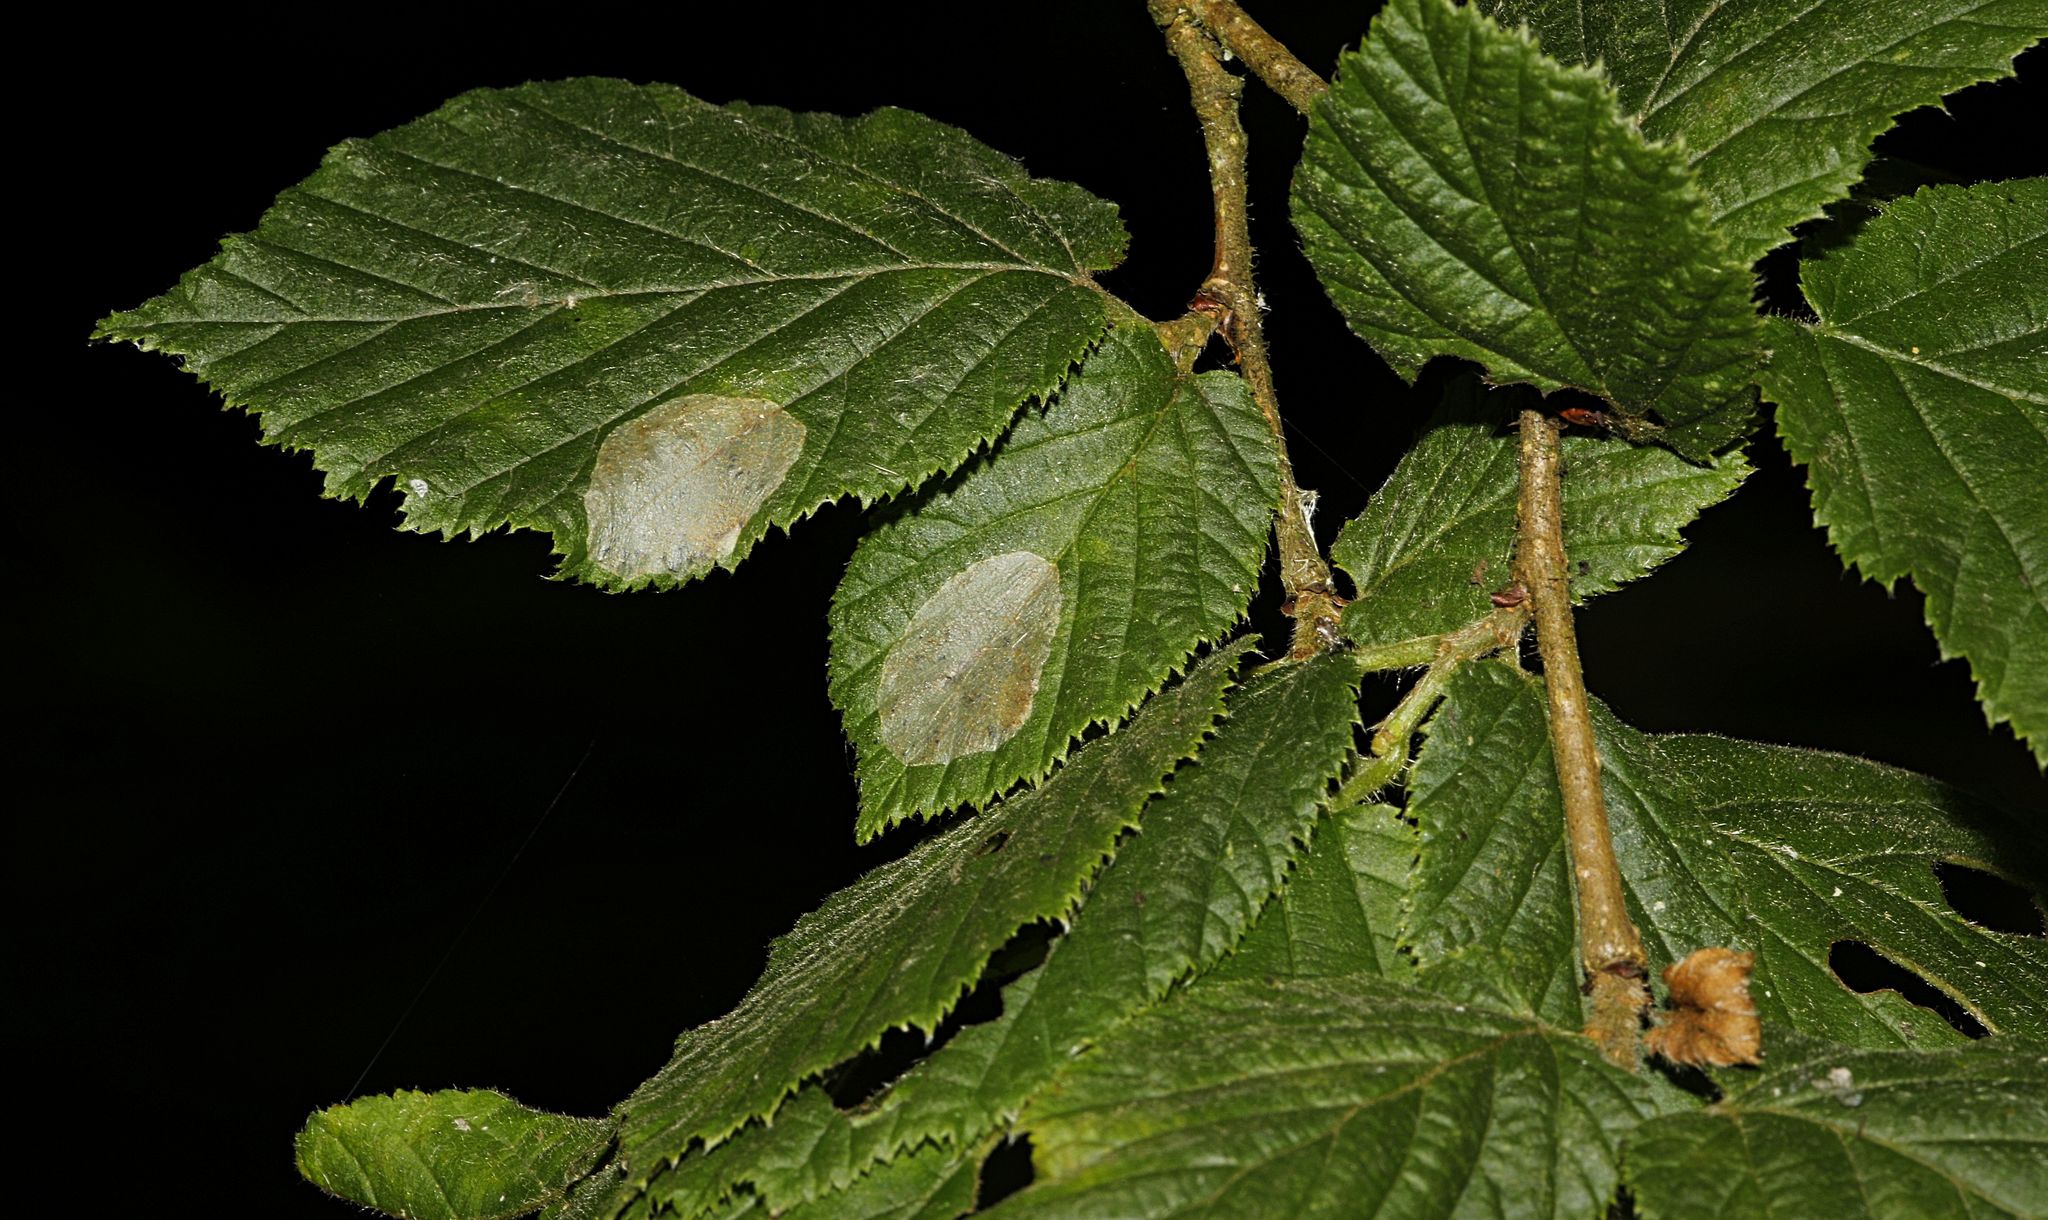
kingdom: Animalia
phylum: Arthropoda
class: Insecta
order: Lepidoptera
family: Gracillariidae
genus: Phyllonorycter
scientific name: Phyllonorycter coryli
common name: Nut-leaf blister moth
